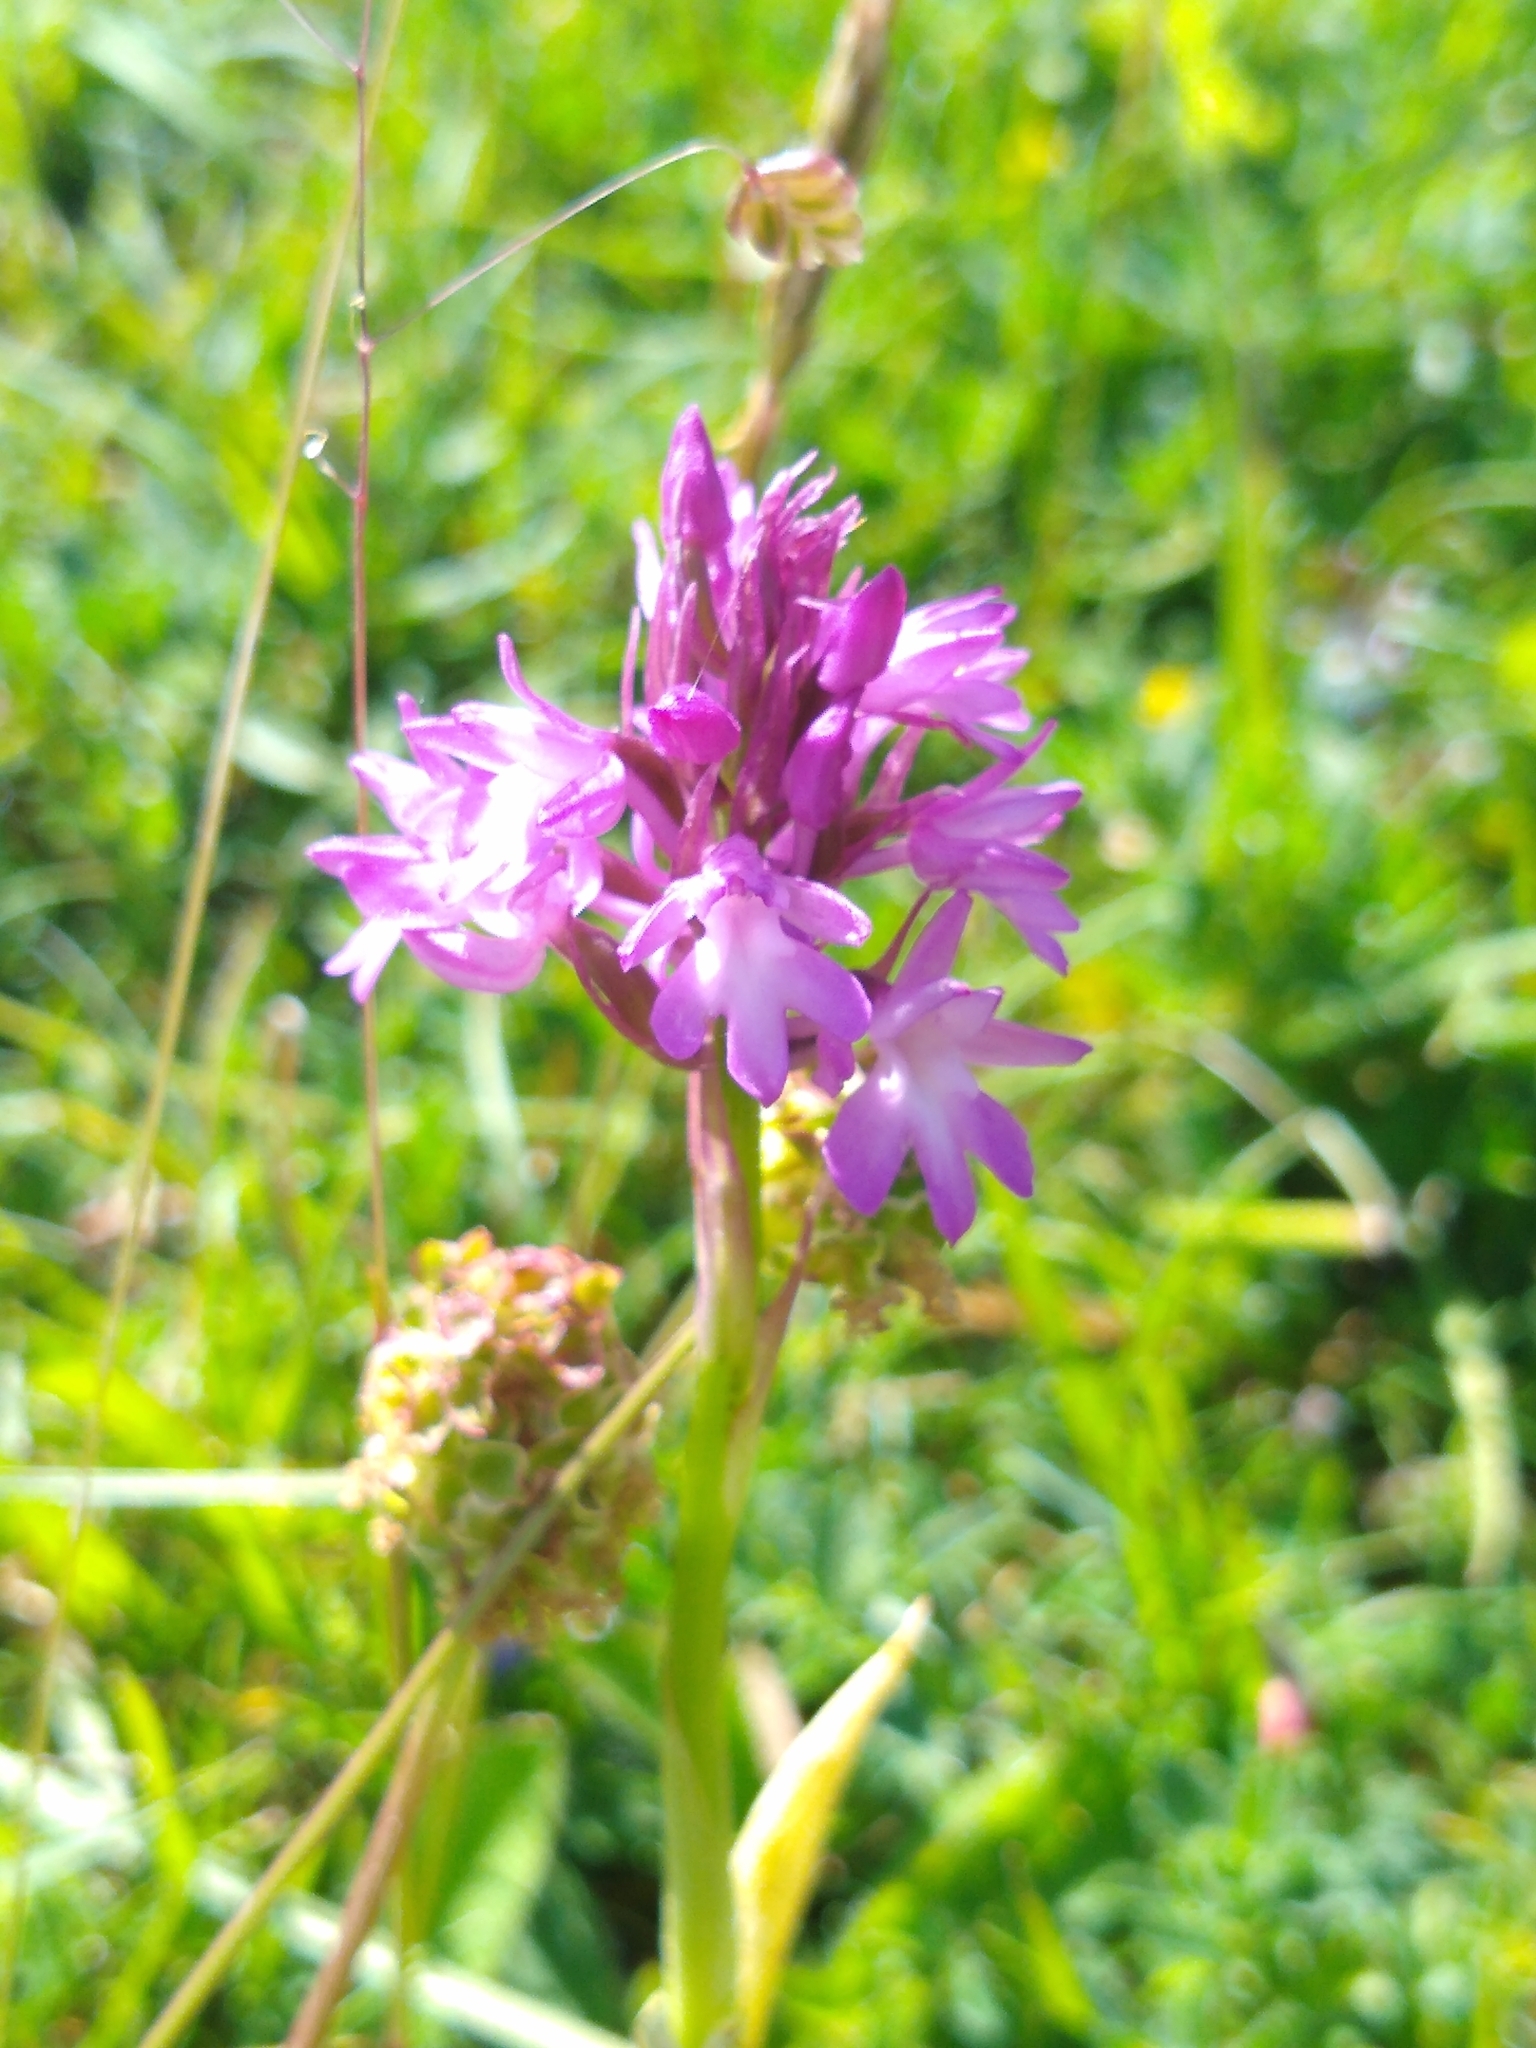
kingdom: Plantae
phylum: Tracheophyta
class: Liliopsida
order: Asparagales
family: Orchidaceae
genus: Anacamptis
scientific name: Anacamptis pyramidalis
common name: Pyramidal orchid
